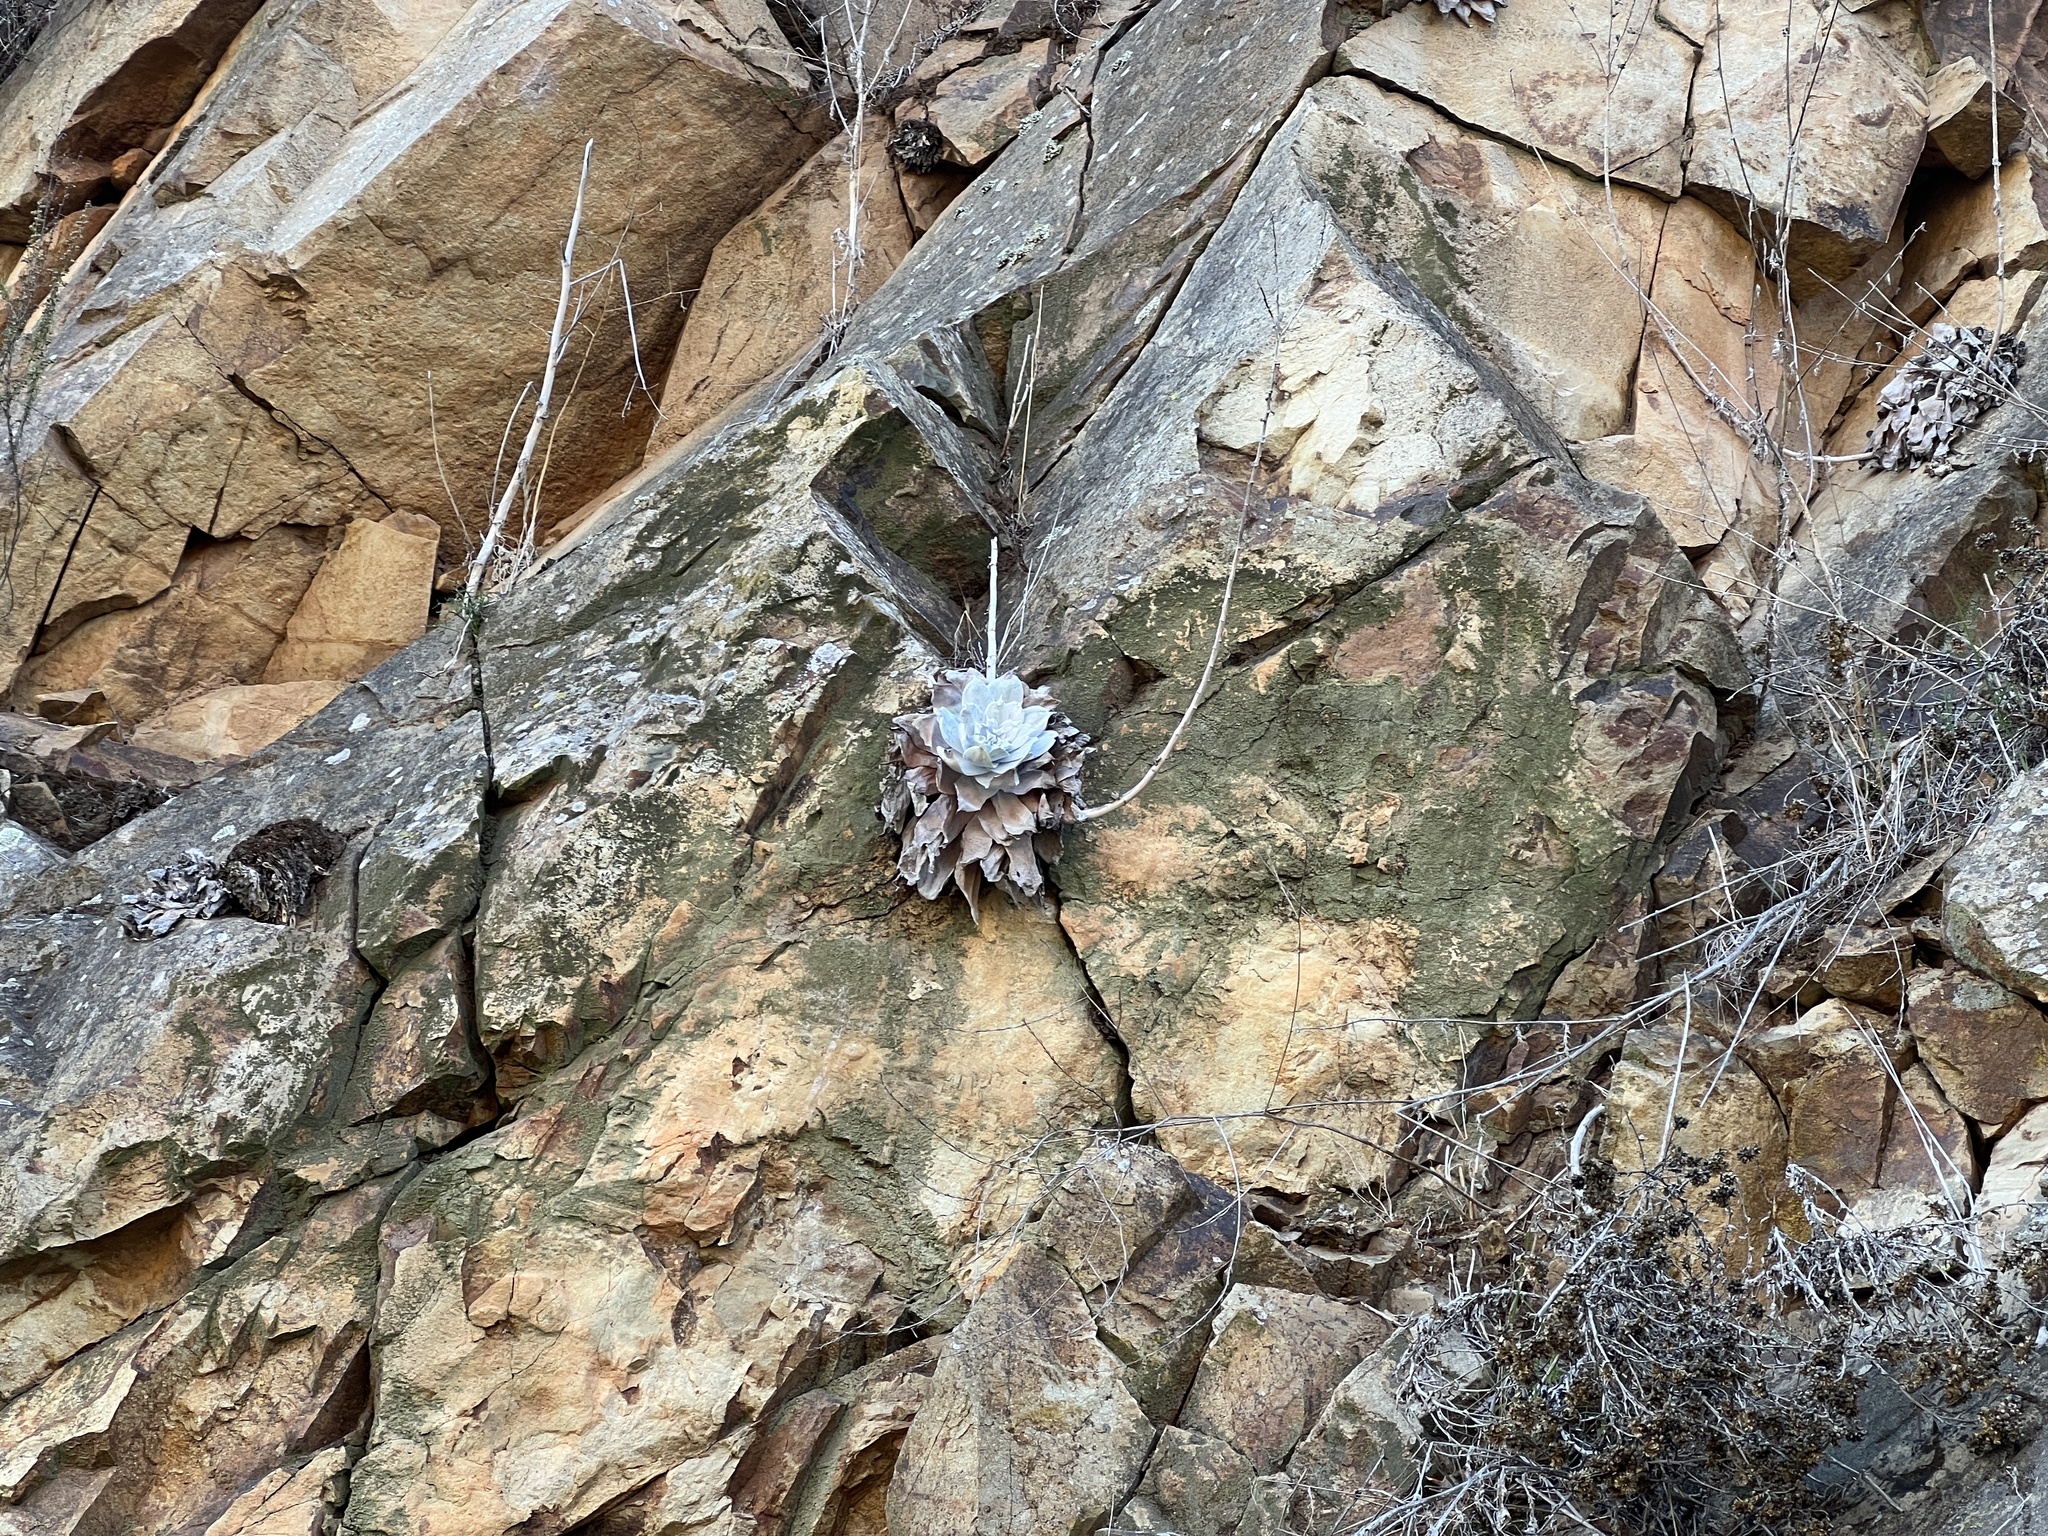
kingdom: Plantae
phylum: Tracheophyta
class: Magnoliopsida
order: Saxifragales
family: Crassulaceae
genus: Dudleya
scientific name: Dudleya pulverulenta
